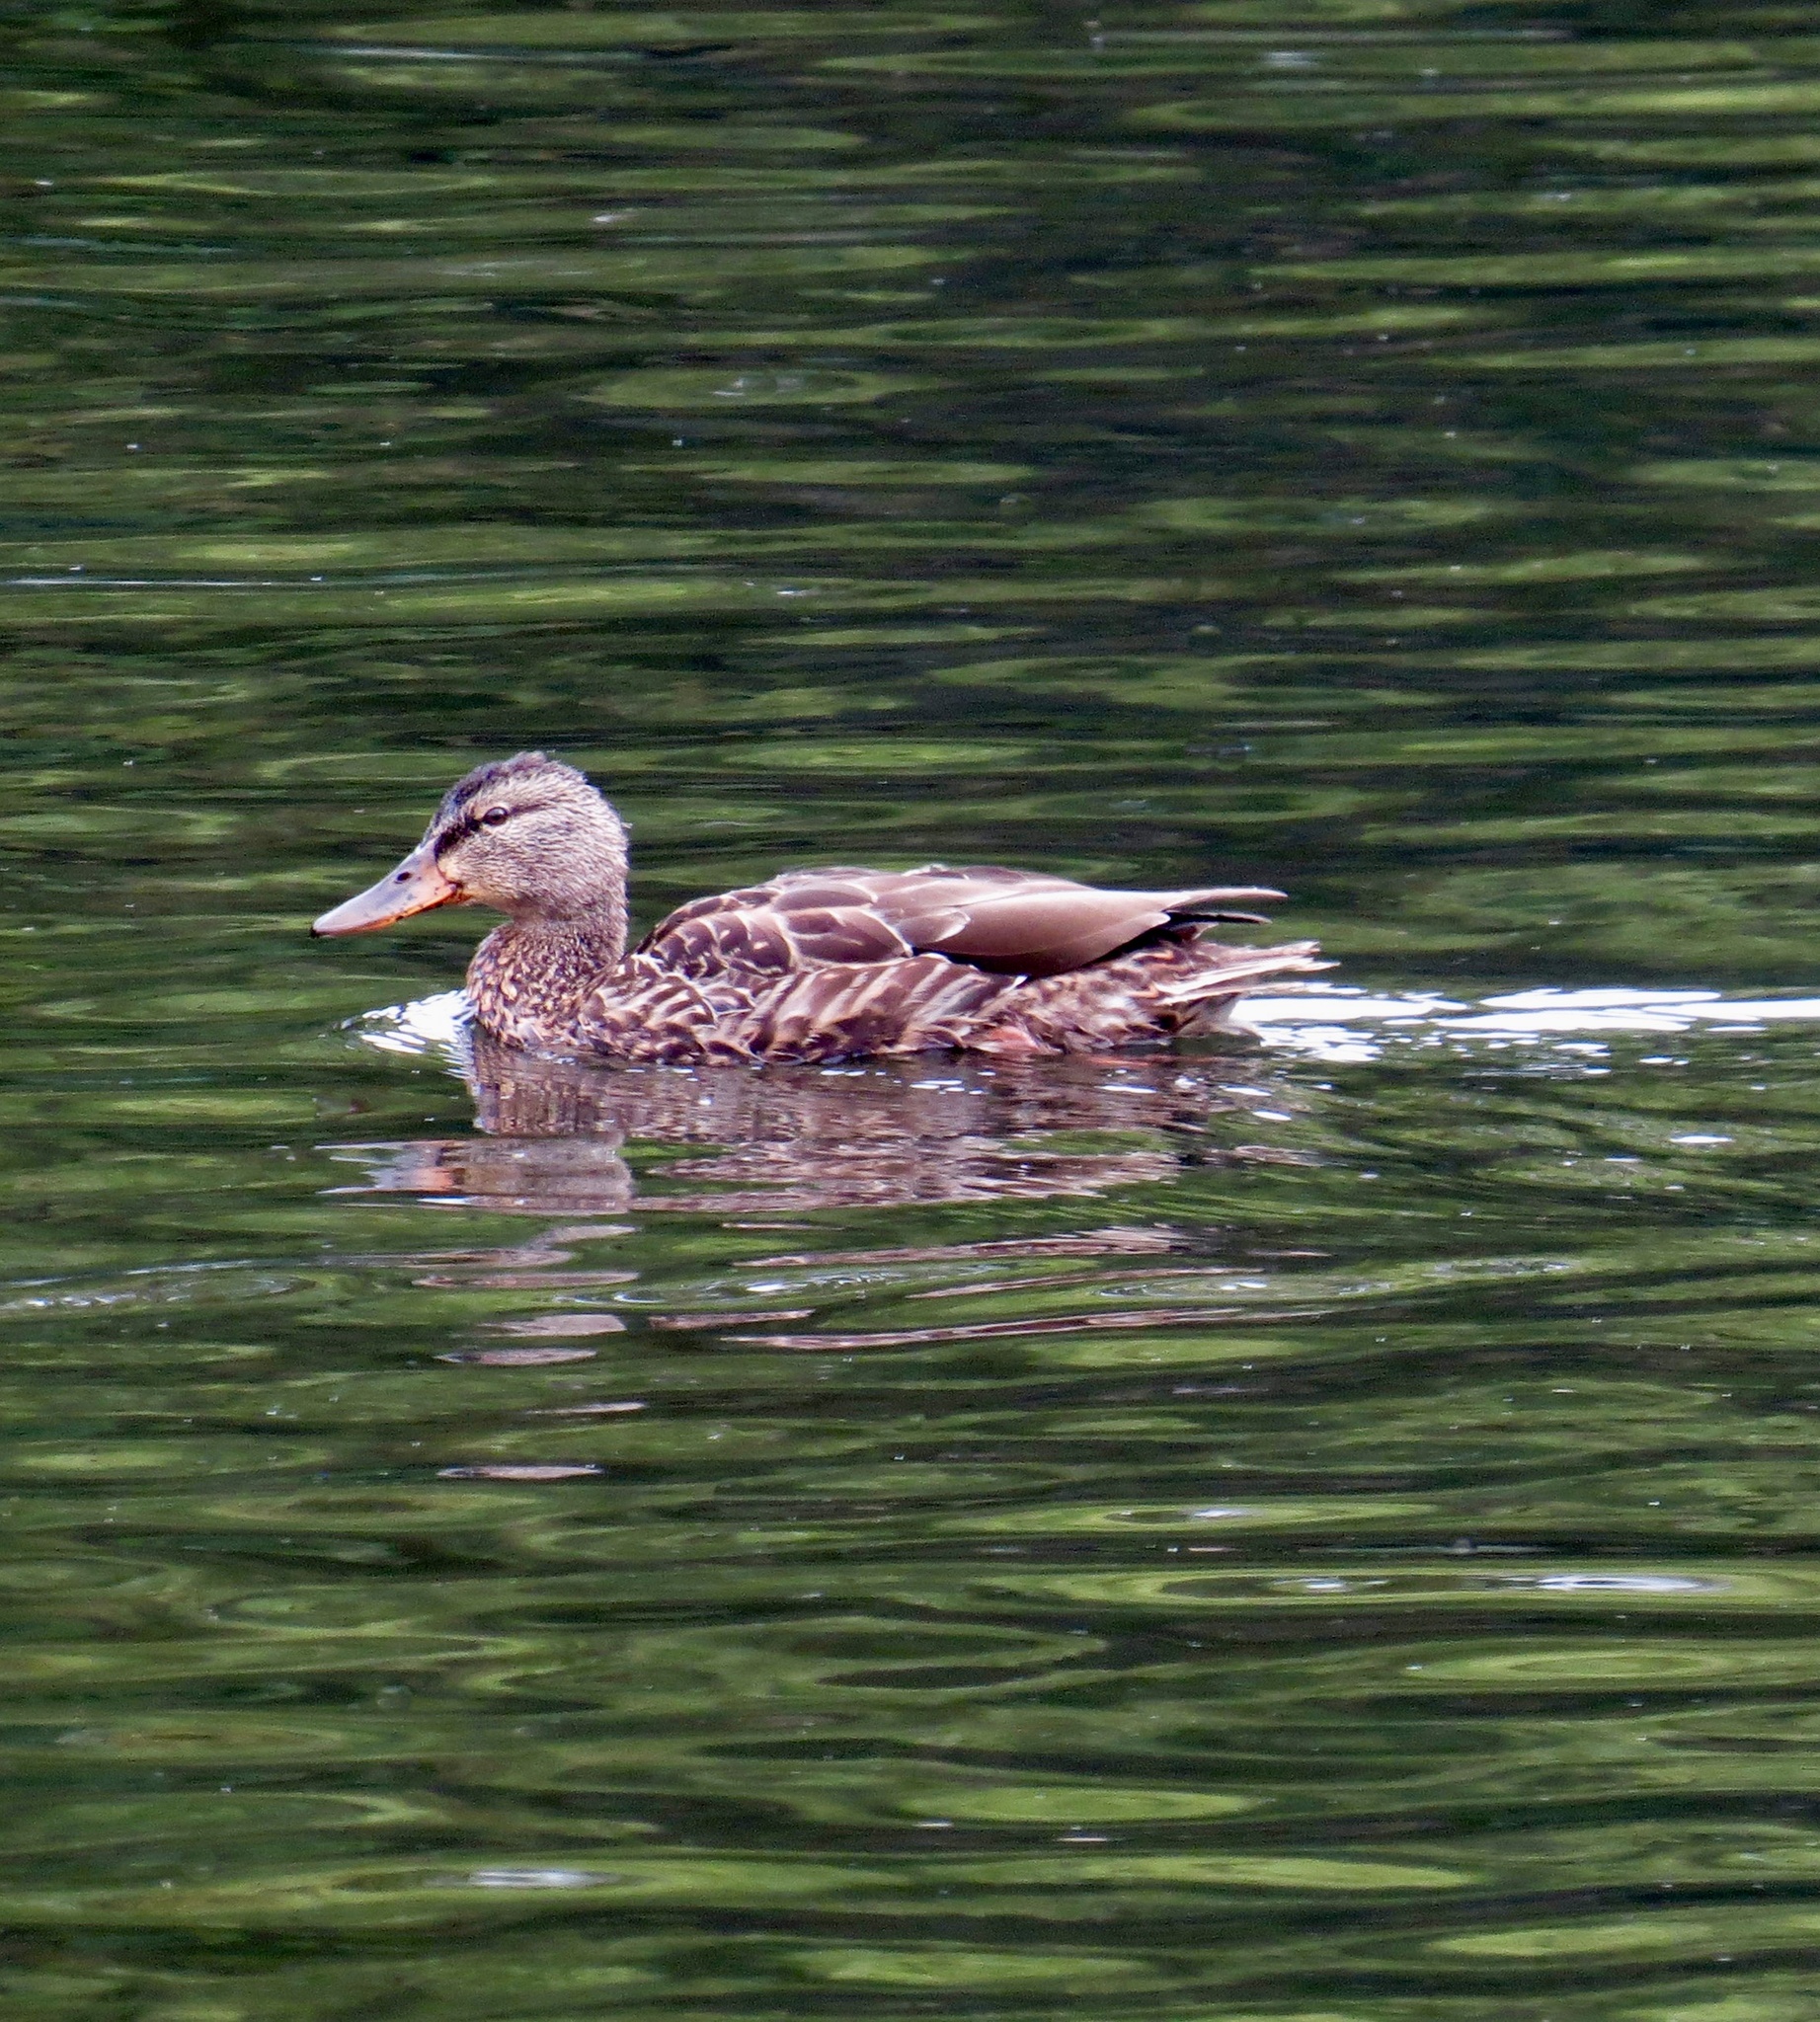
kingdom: Animalia
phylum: Chordata
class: Aves
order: Anseriformes
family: Anatidae
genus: Anas
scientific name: Anas platyrhynchos
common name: Mallard
